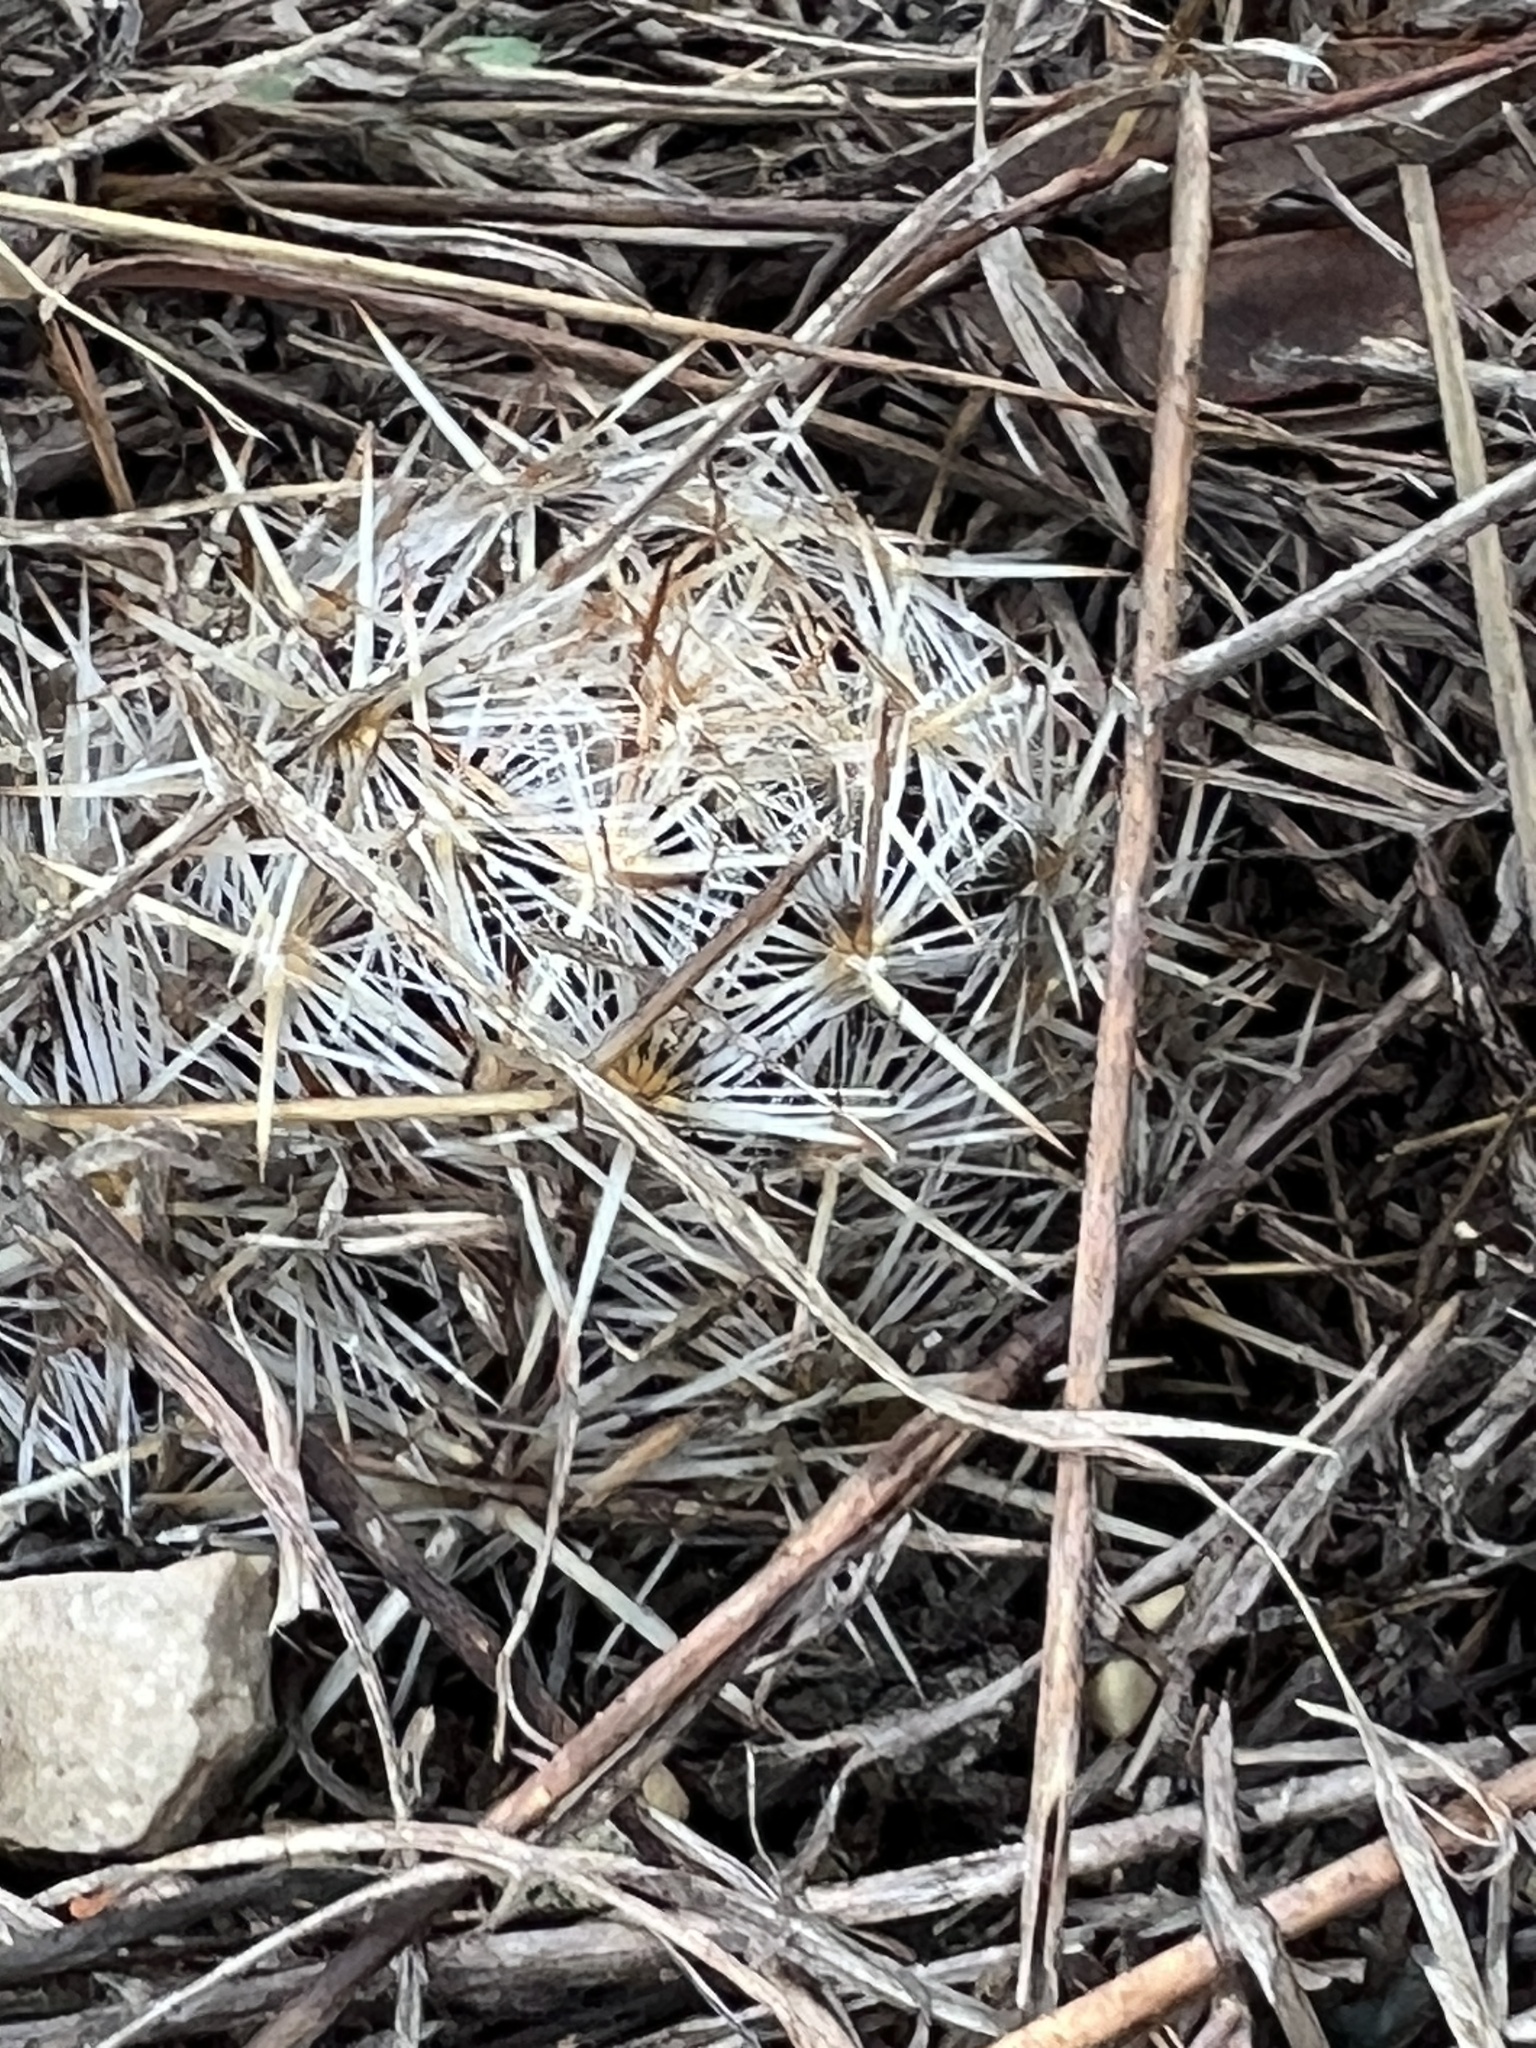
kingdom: Plantae
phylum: Tracheophyta
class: Magnoliopsida
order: Caryophyllales
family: Cactaceae
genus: Coryphantha
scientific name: Coryphantha echinus
